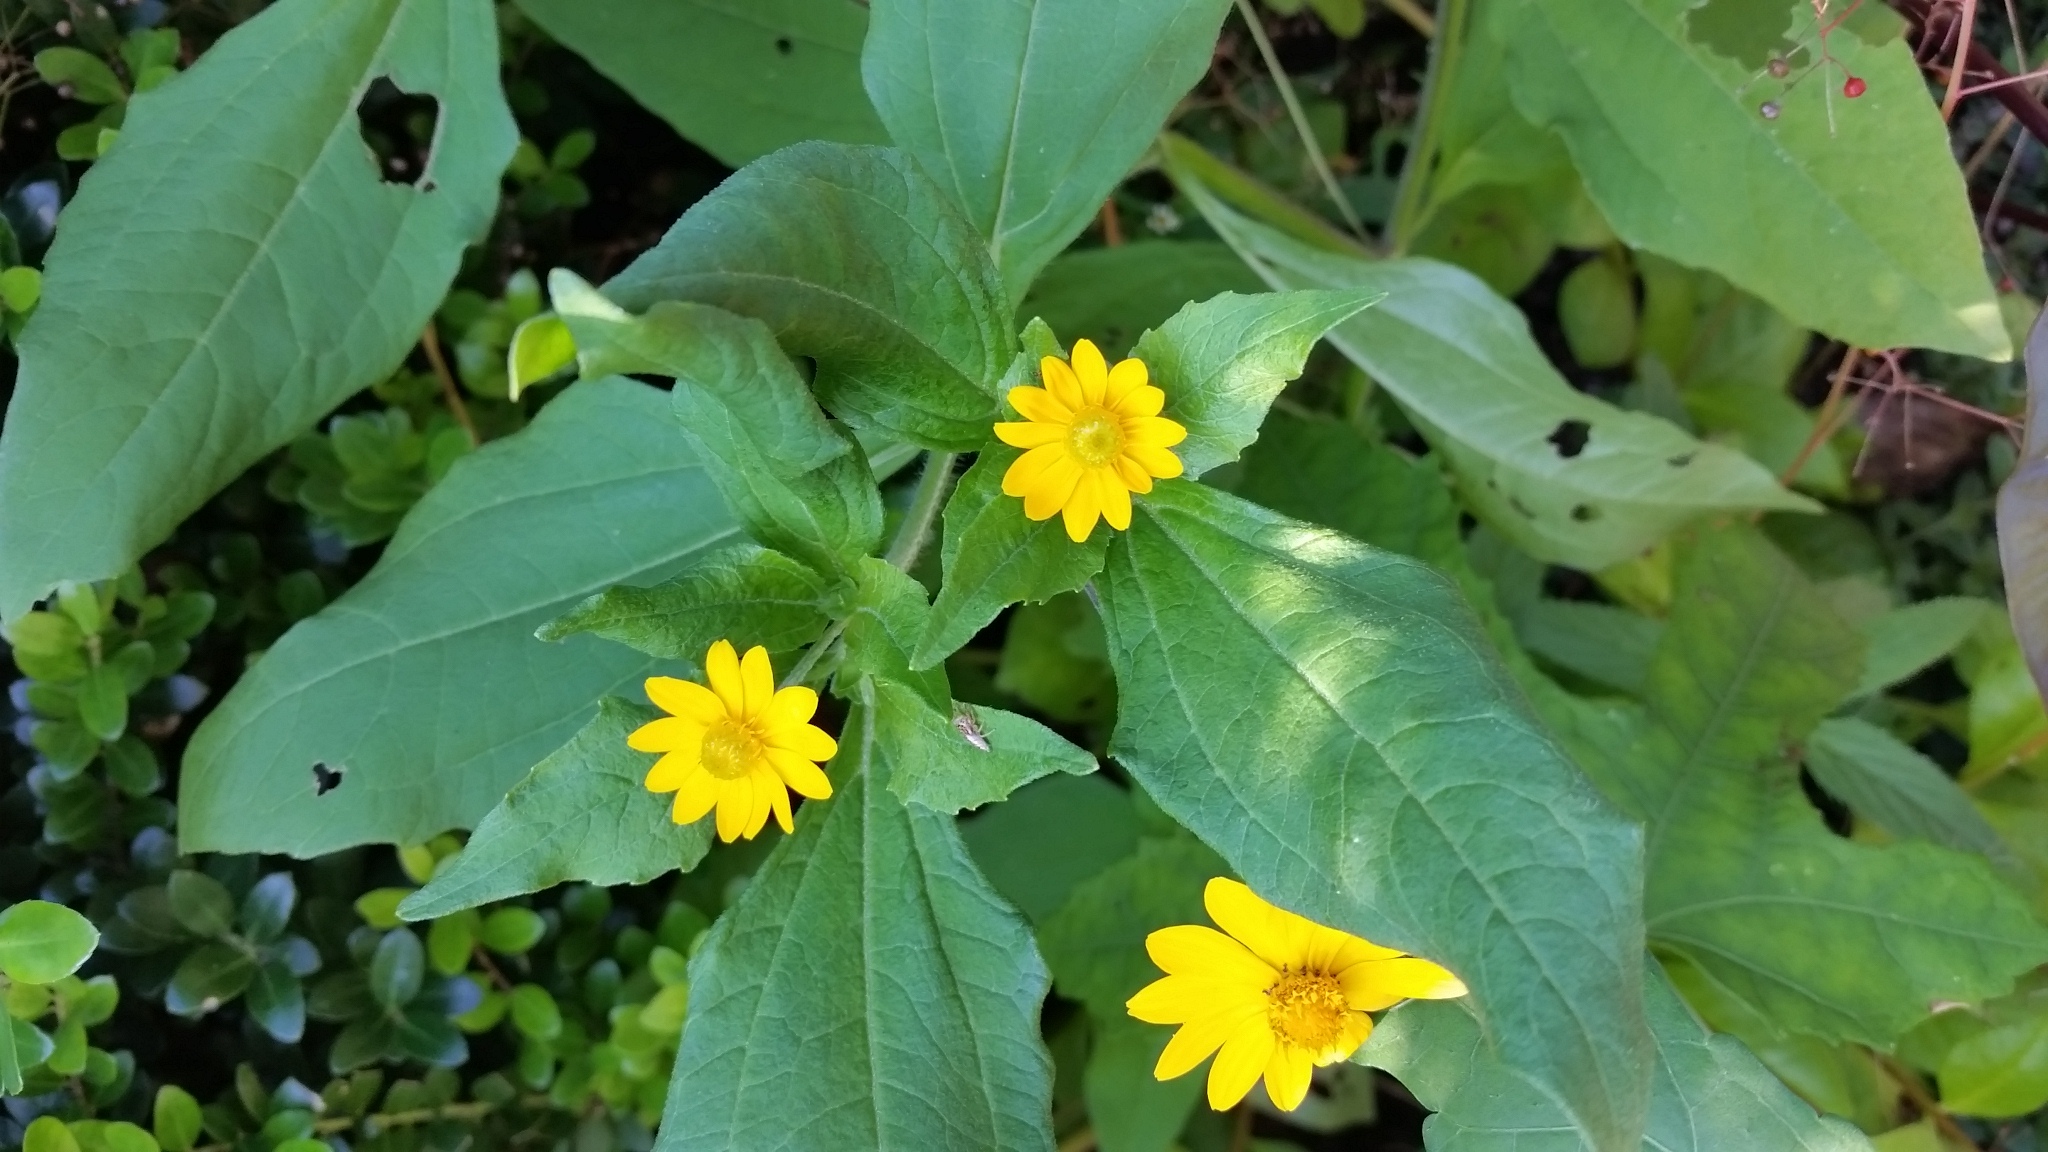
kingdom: Plantae
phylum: Tracheophyta
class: Magnoliopsida
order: Asterales
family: Asteraceae
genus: Melampodium
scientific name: Melampodium divaricatum
